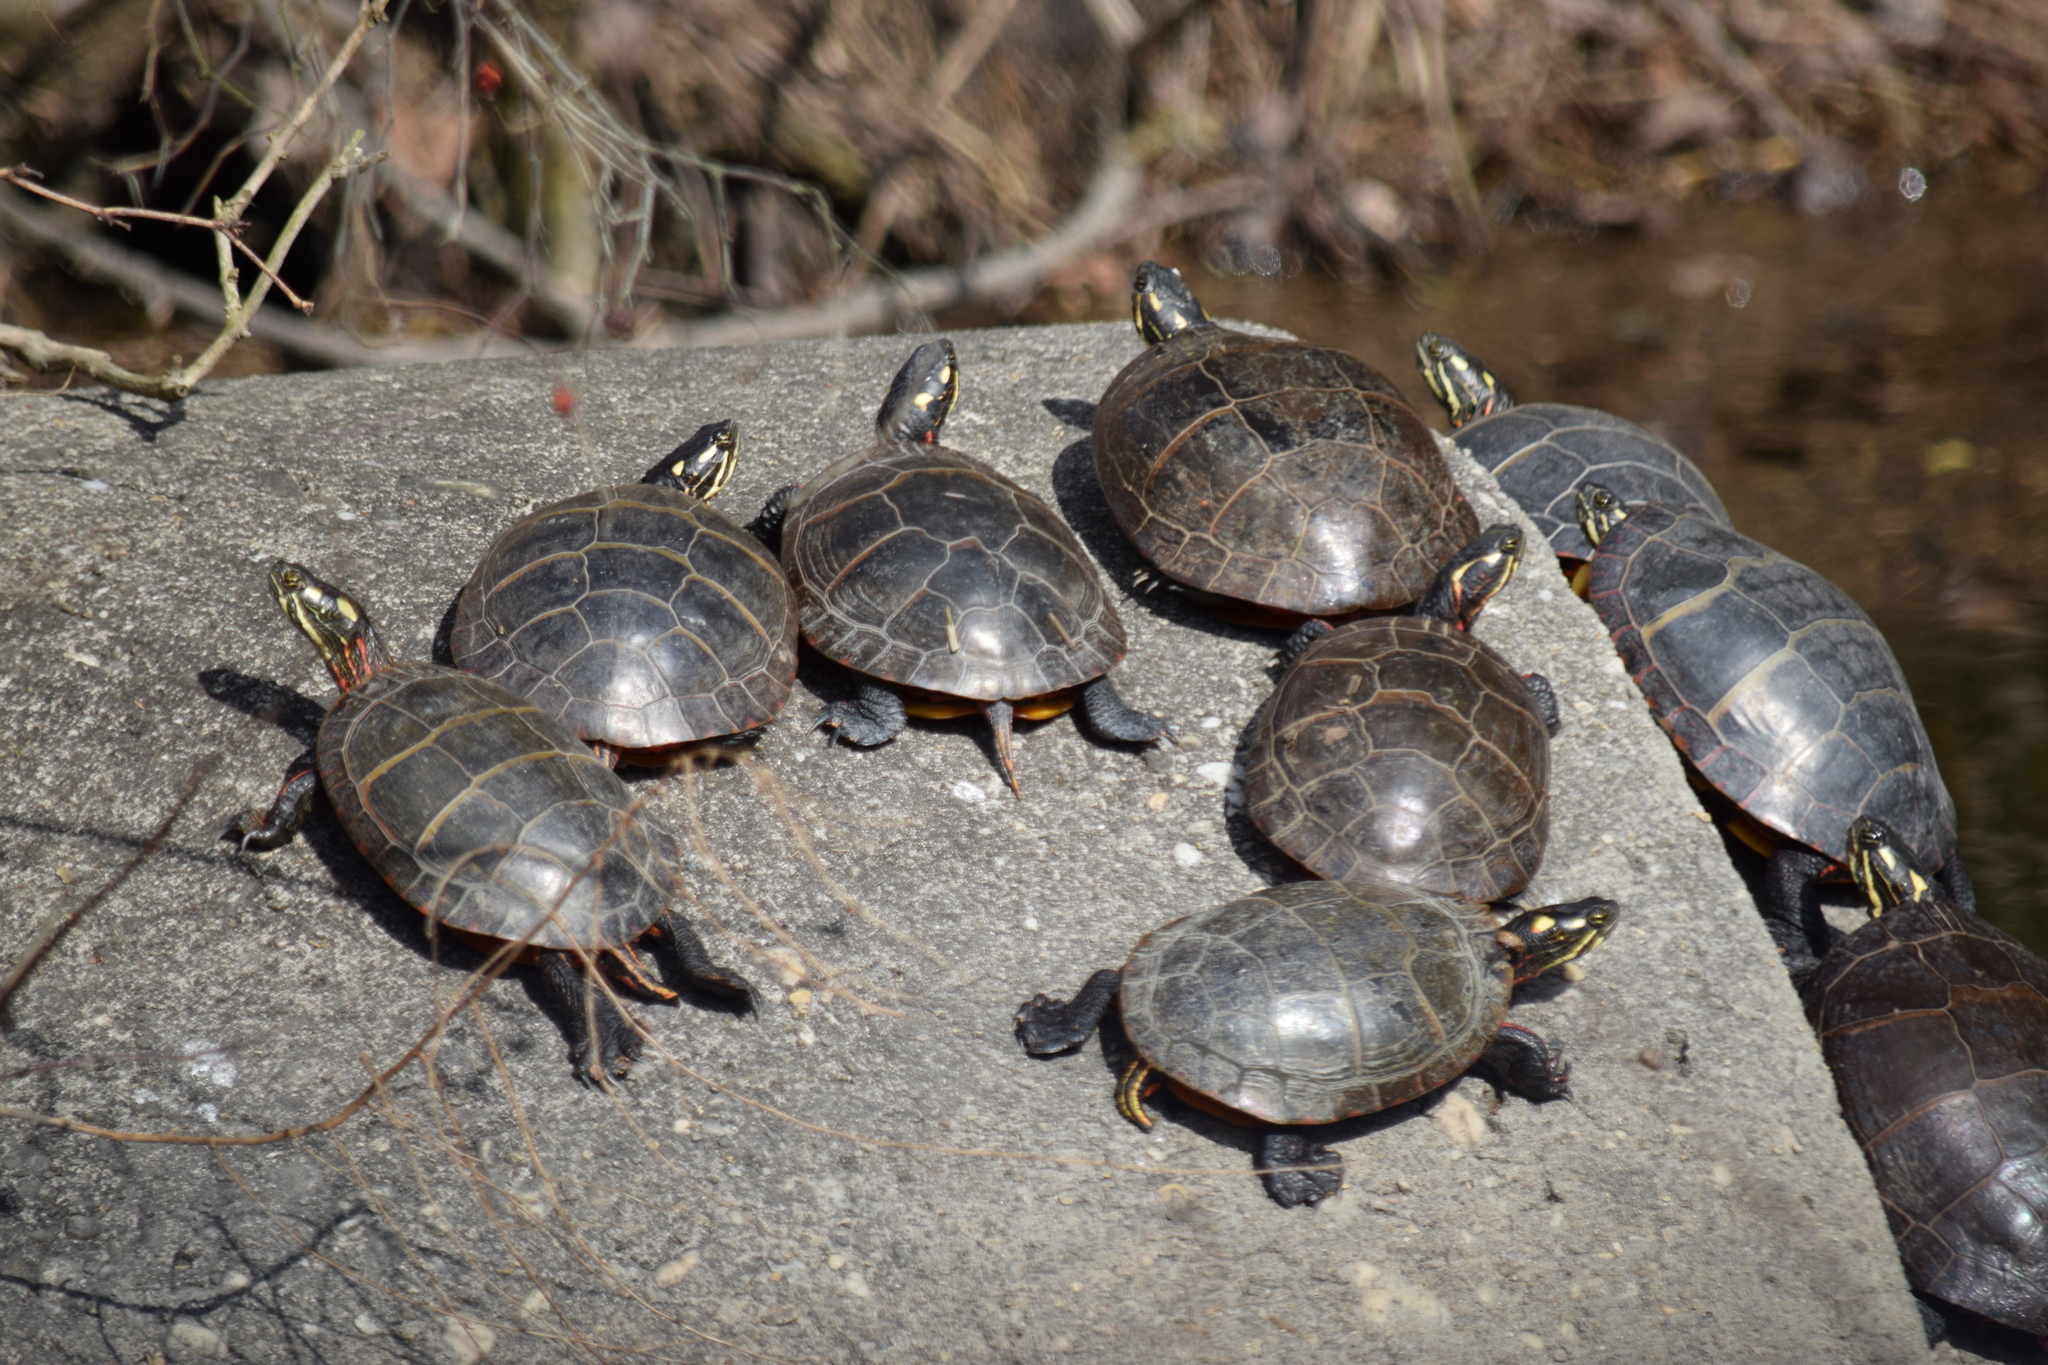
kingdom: Animalia
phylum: Chordata
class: Testudines
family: Emydidae
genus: Chrysemys
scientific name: Chrysemys picta
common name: Painted turtle
